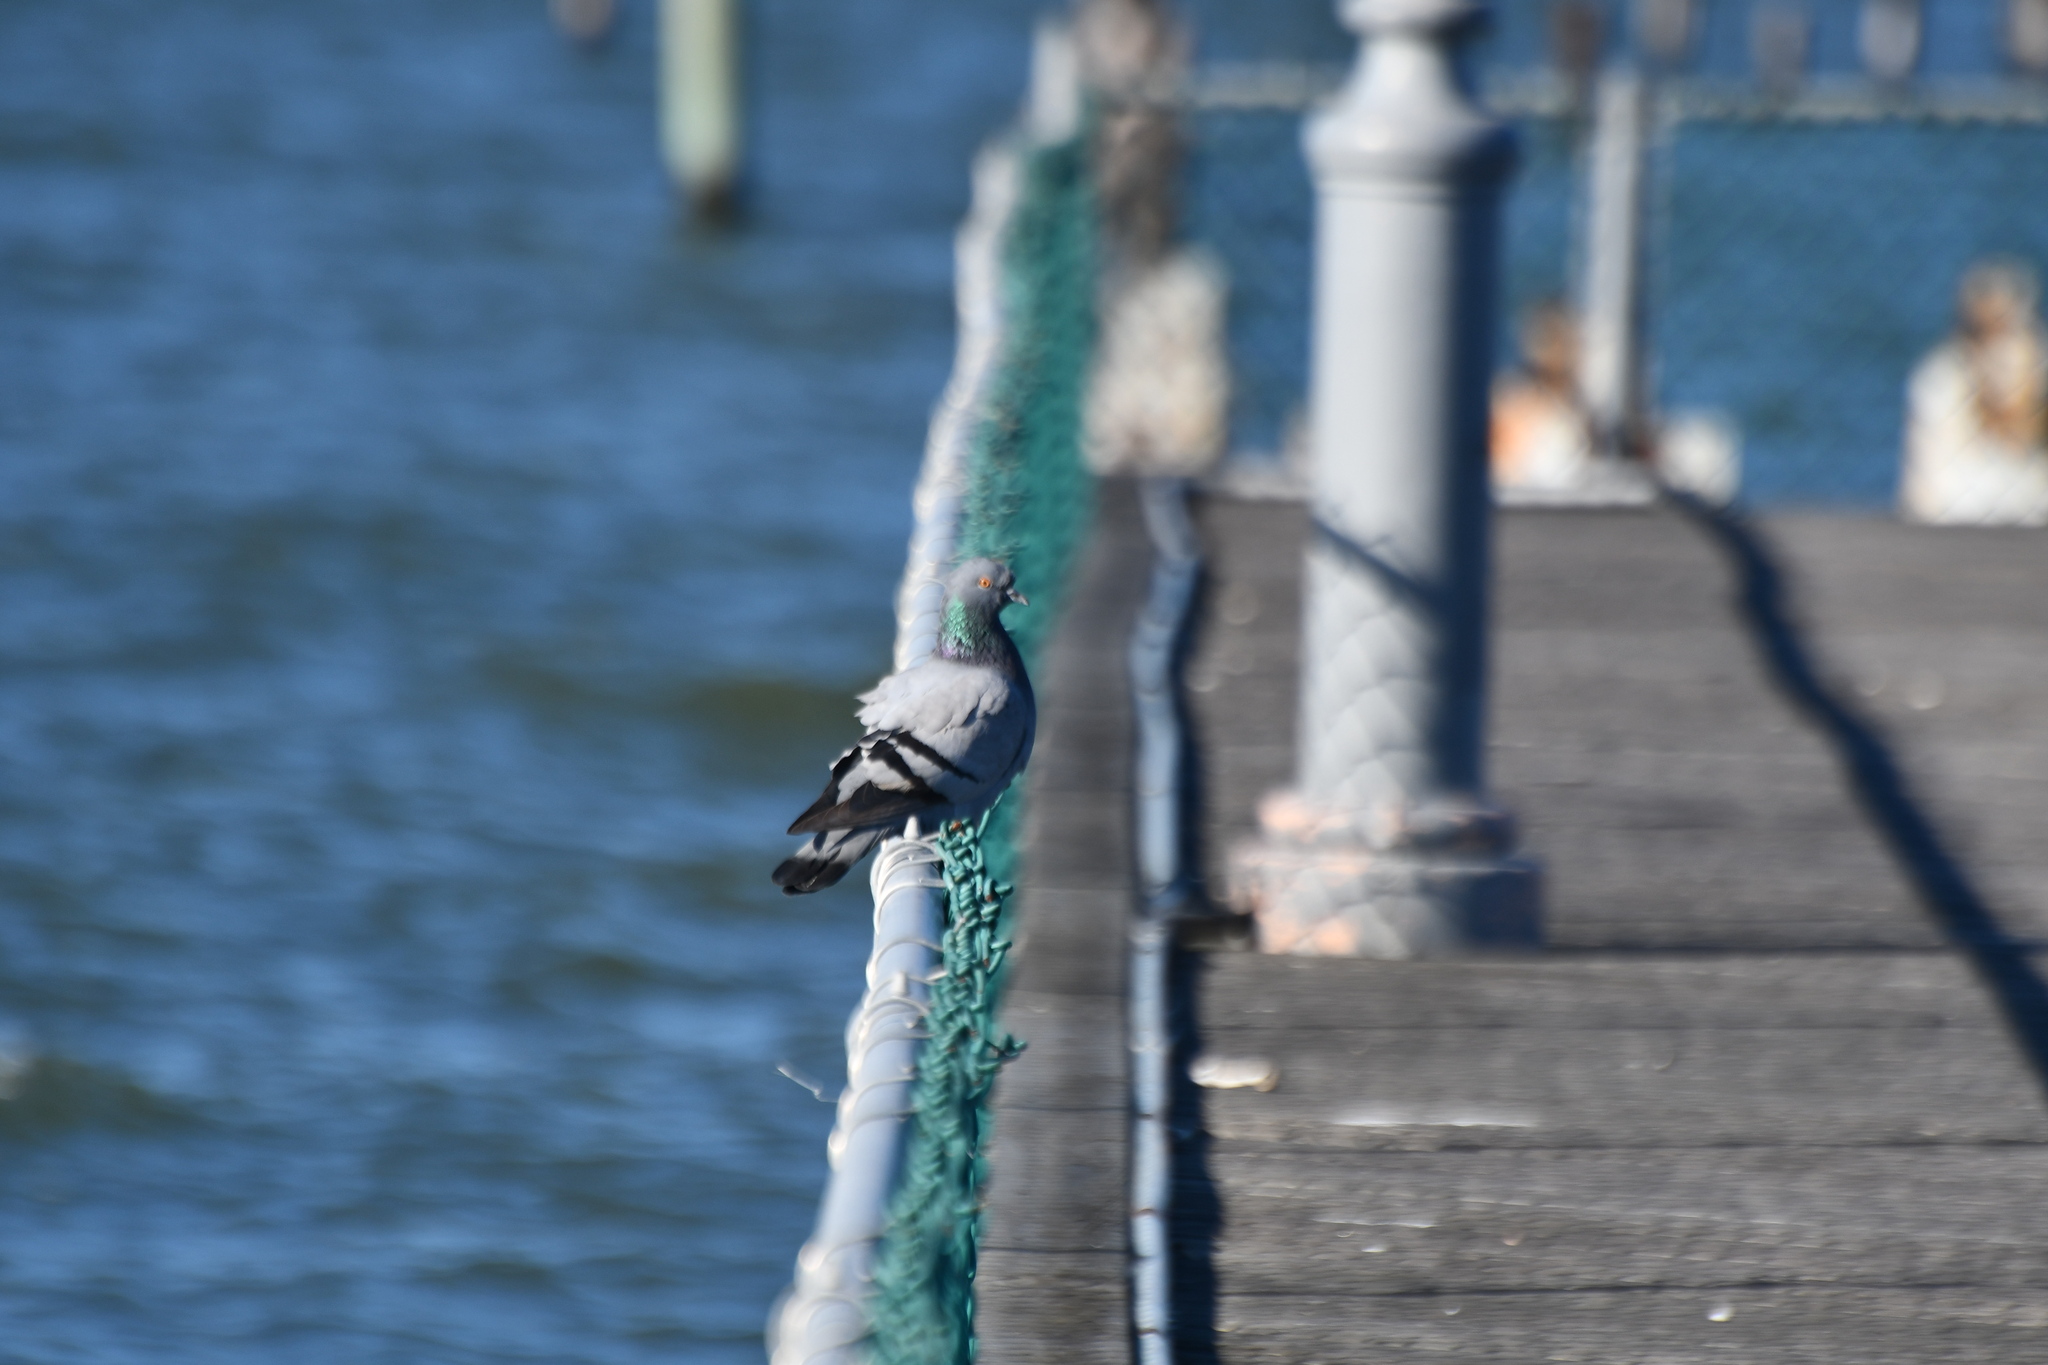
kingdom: Animalia
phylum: Chordata
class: Aves
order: Columbiformes
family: Columbidae
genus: Columba
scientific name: Columba livia
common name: Rock pigeon
